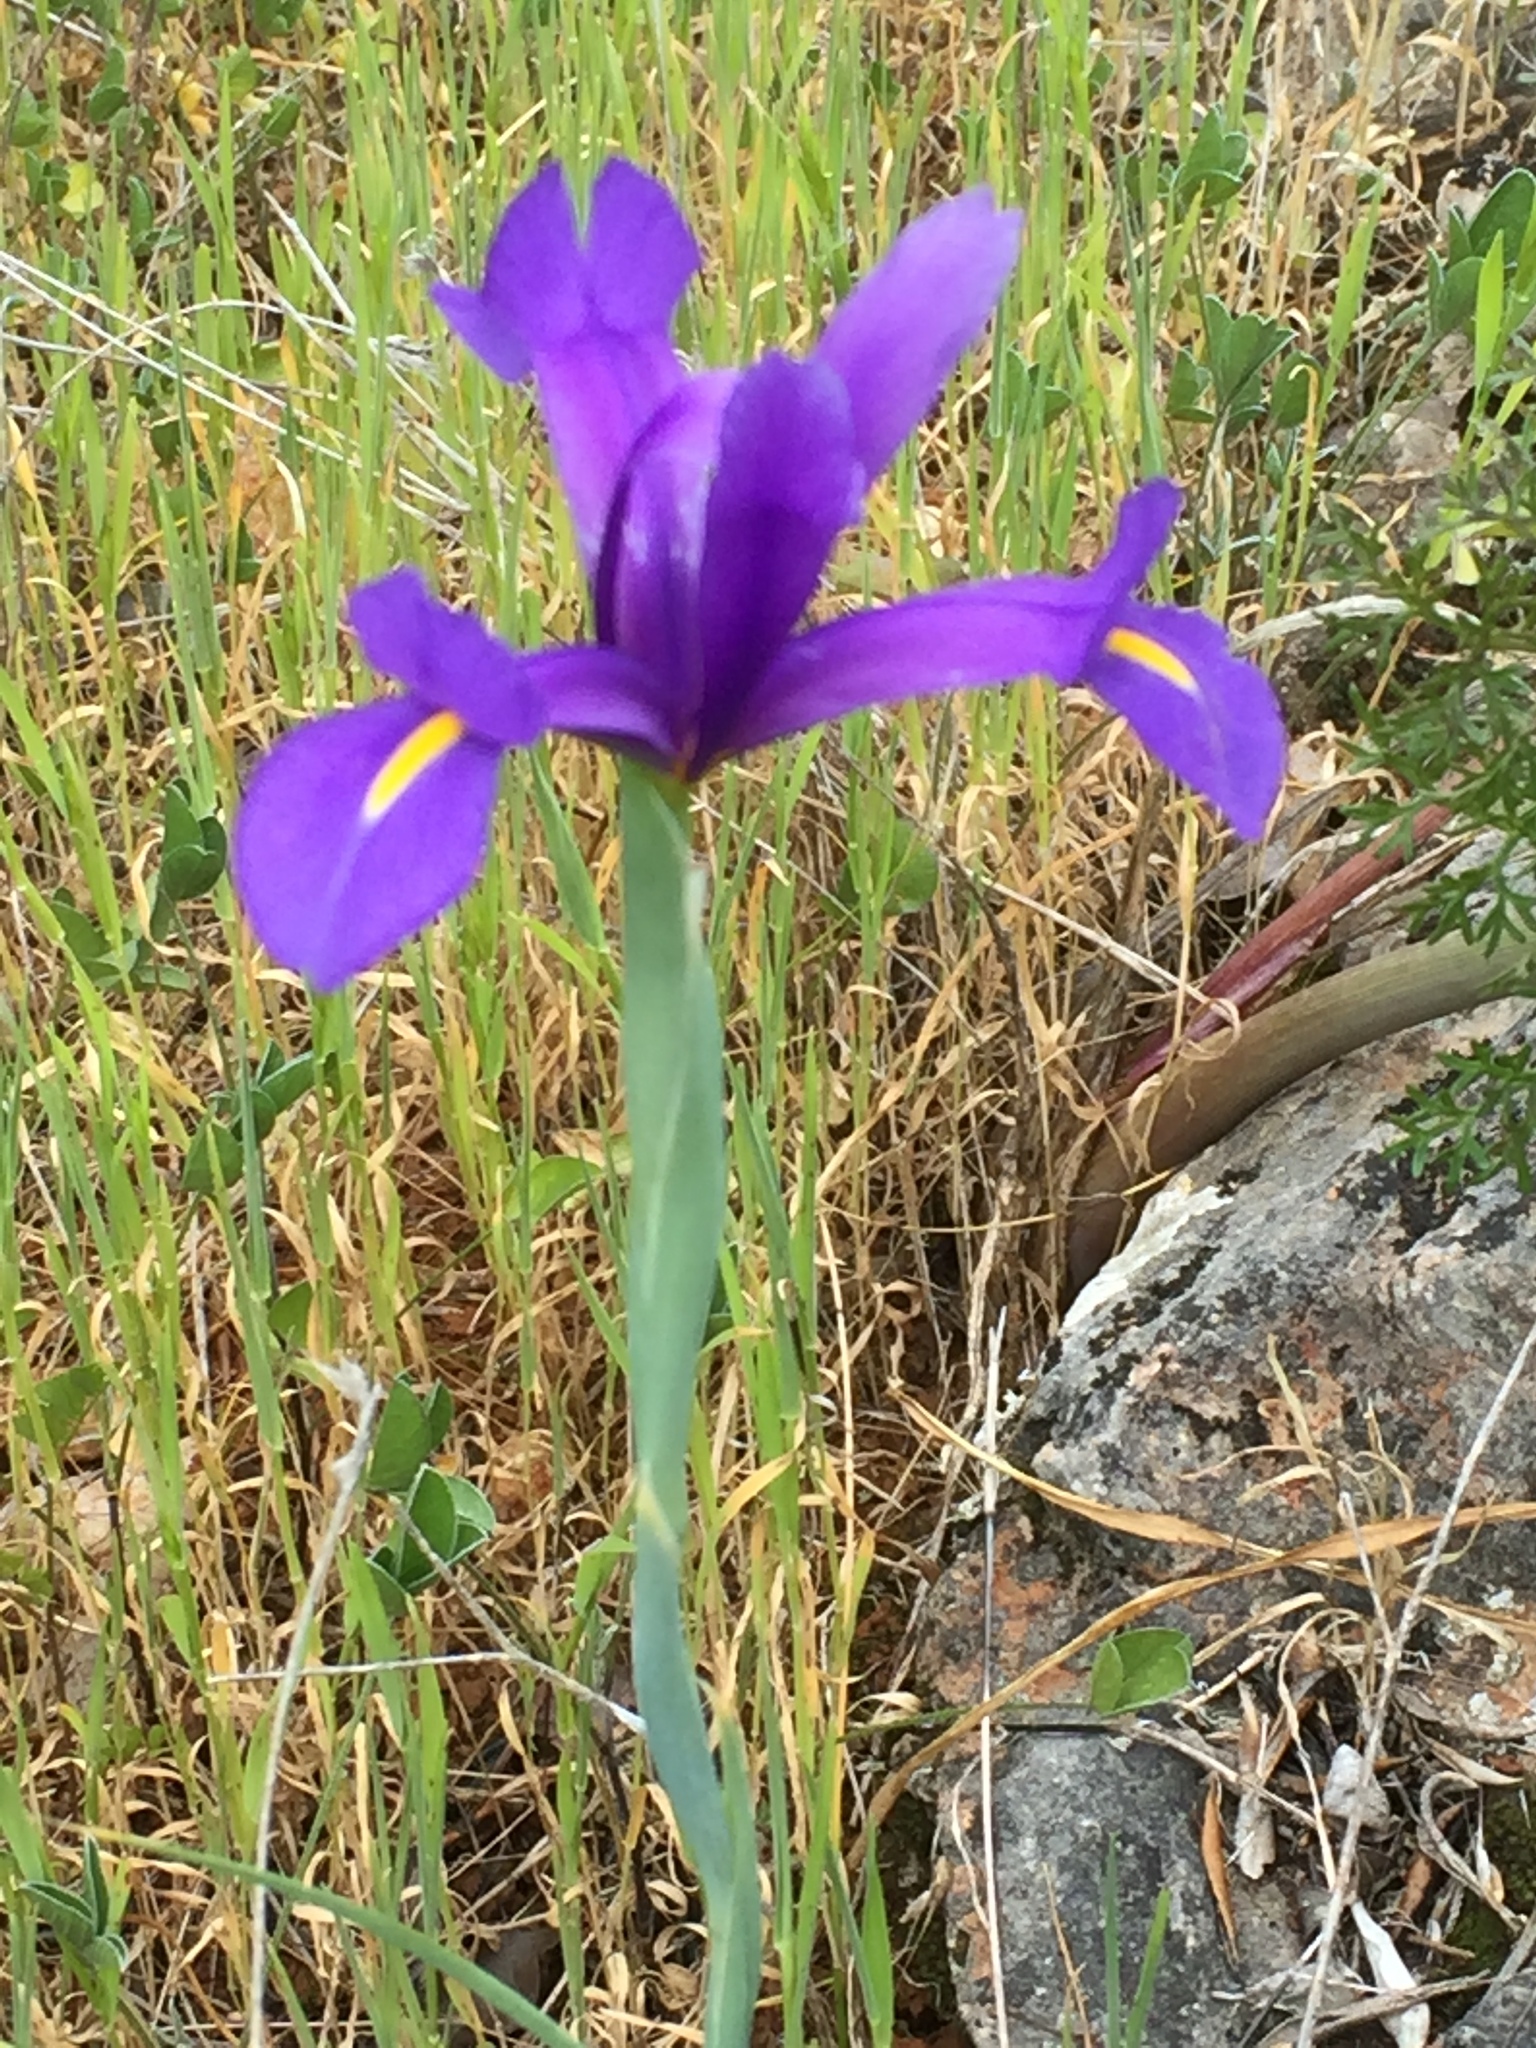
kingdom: Plantae
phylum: Tracheophyta
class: Liliopsida
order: Asparagales
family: Iridaceae
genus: Iris
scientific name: Iris xiphium
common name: Spanish iris
